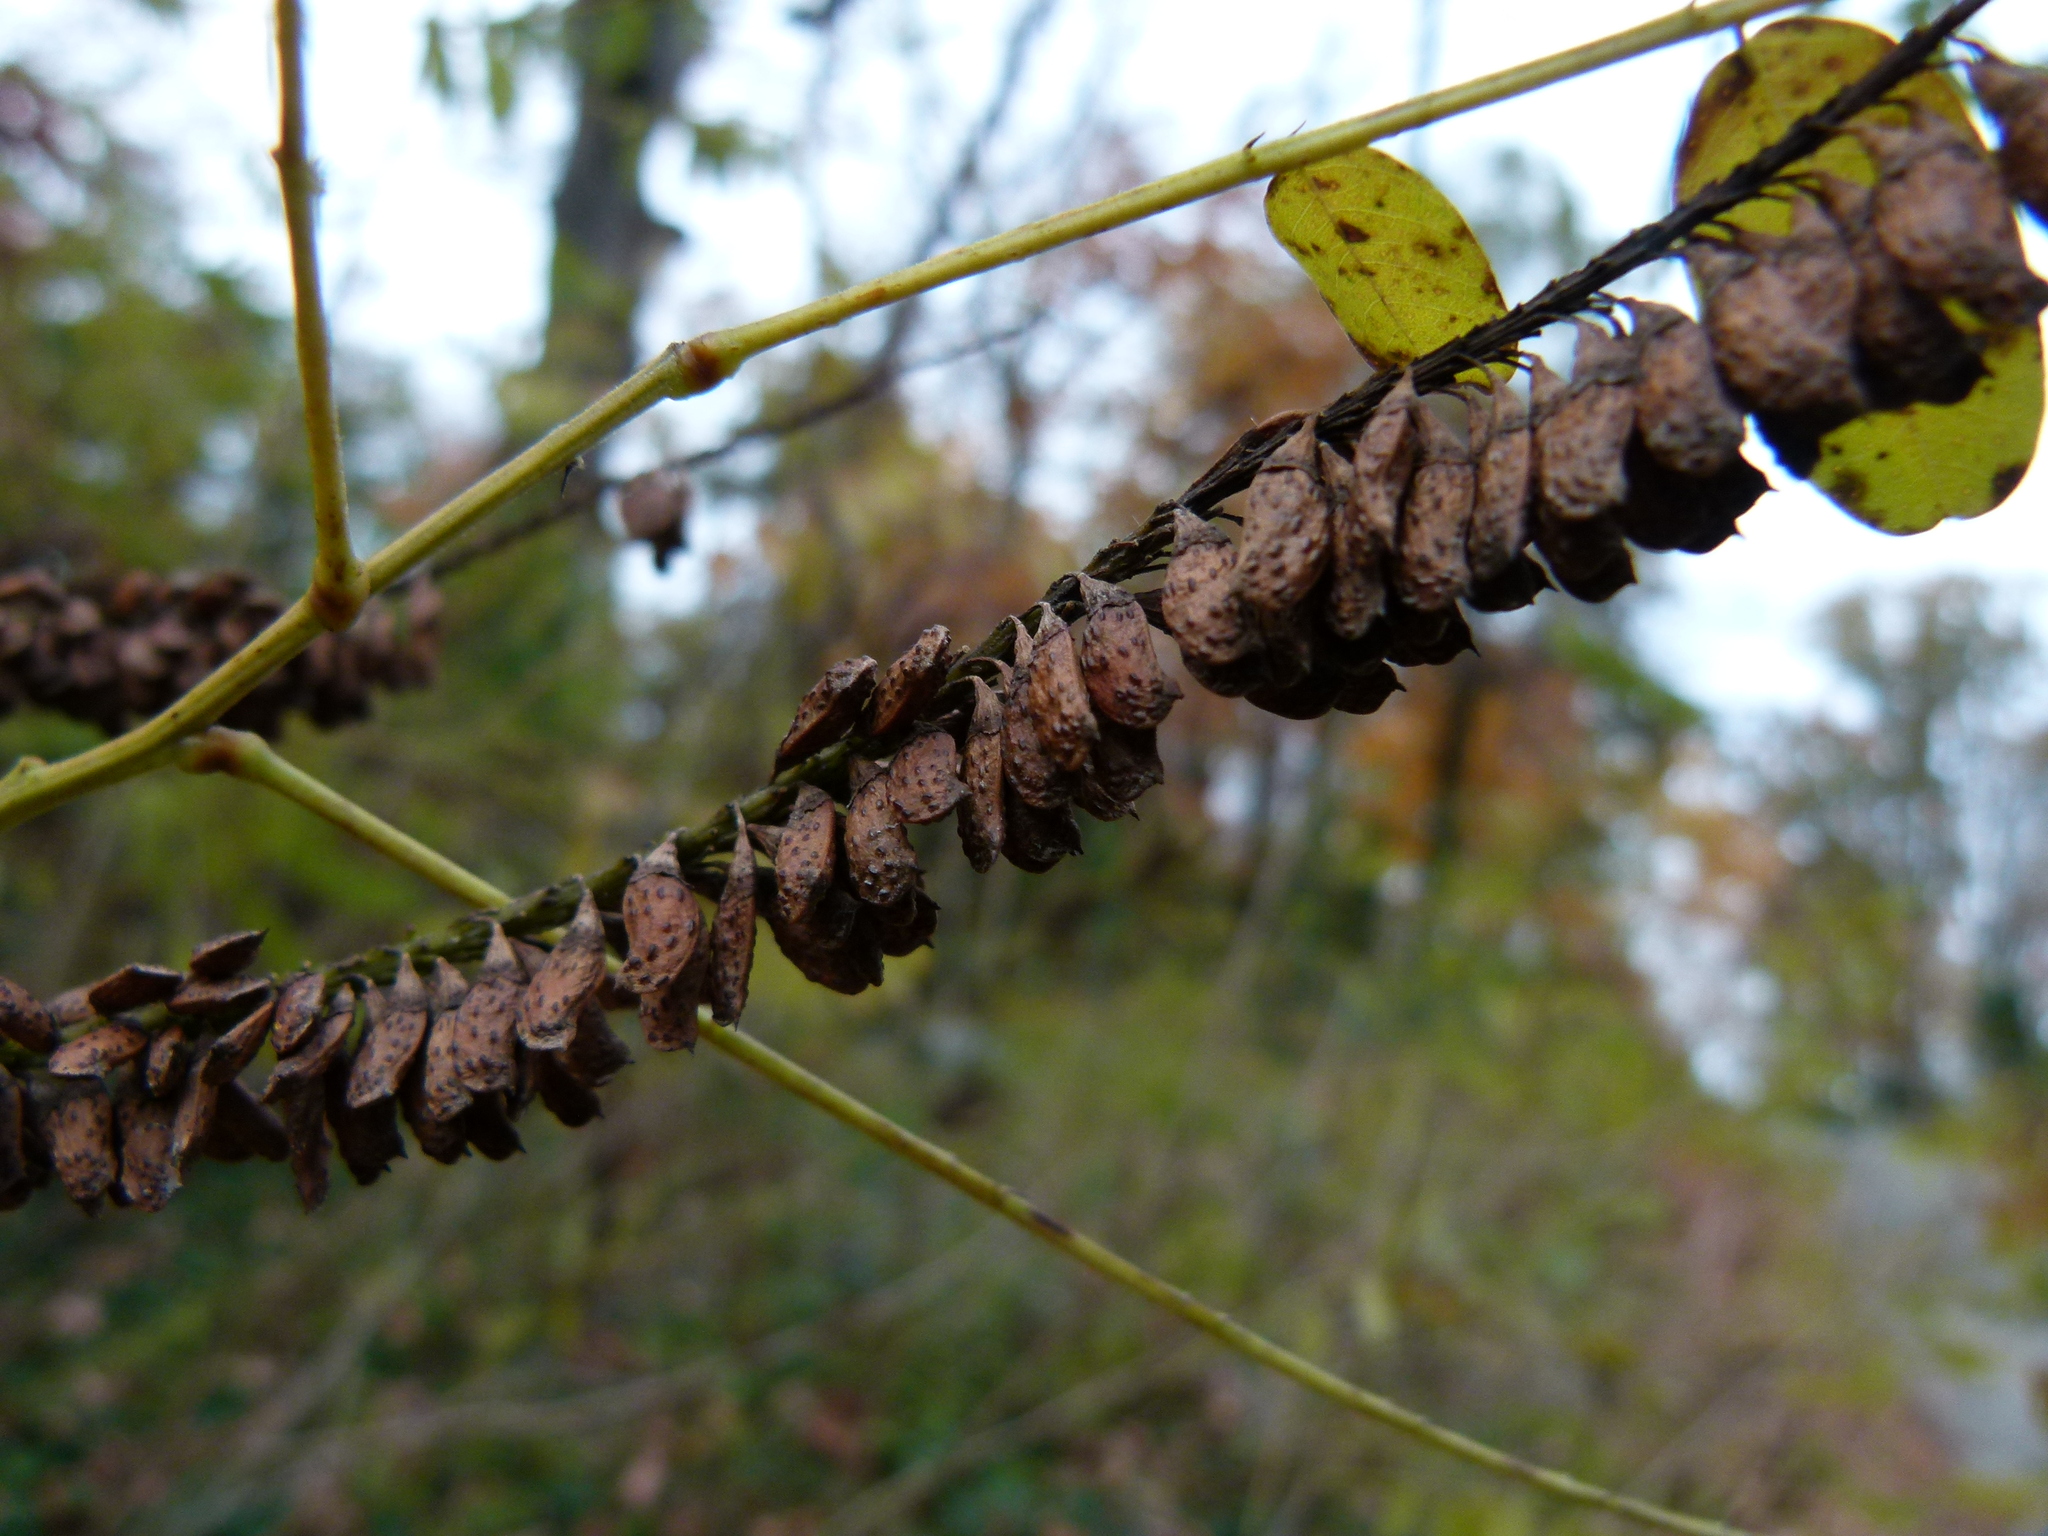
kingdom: Plantae
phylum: Tracheophyta
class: Magnoliopsida
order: Fabales
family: Fabaceae
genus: Amorpha
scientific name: Amorpha fruticosa
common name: False indigo
